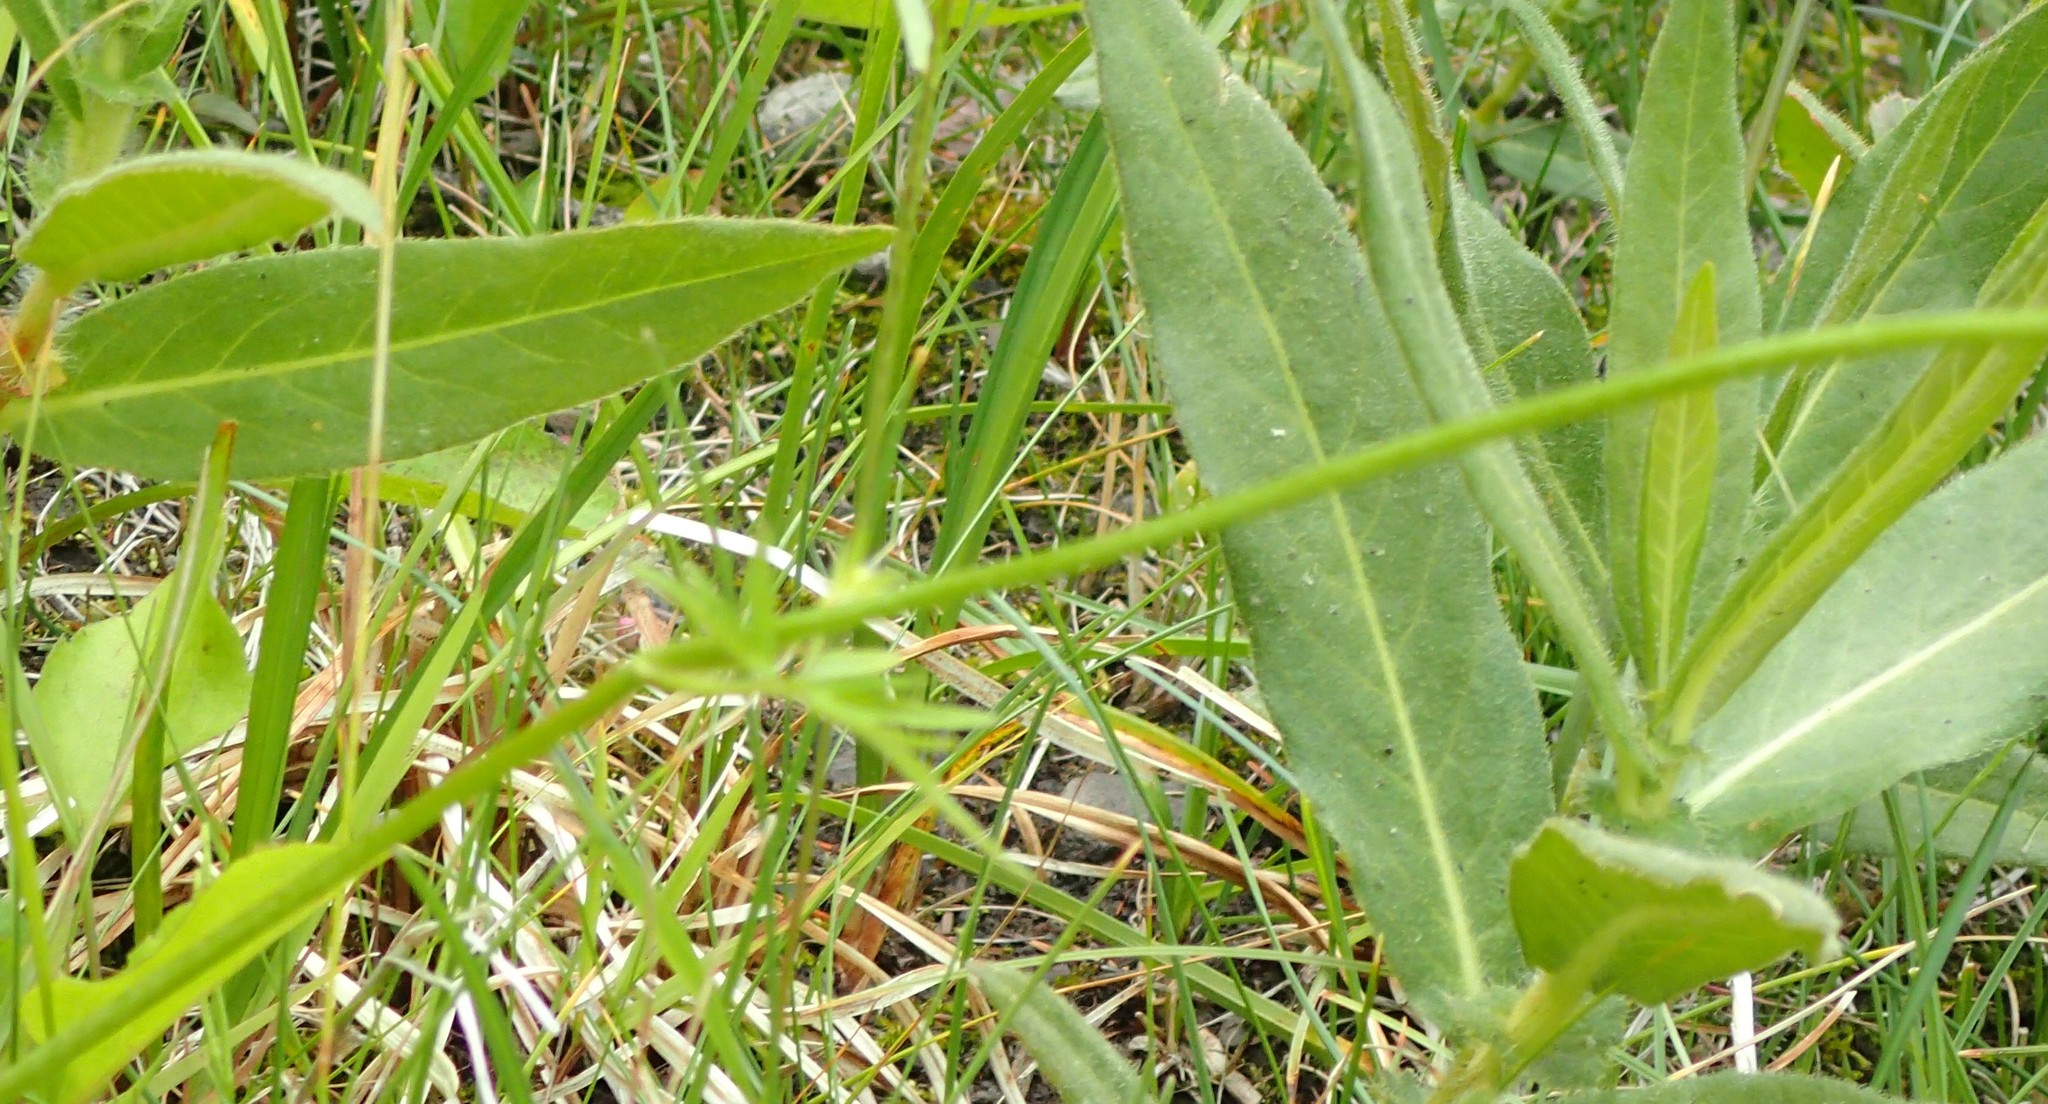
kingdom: Plantae
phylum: Tracheophyta
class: Magnoliopsida
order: Ranunculales
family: Ranunculaceae
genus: Ranunculus
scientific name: Ranunculus acris
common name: Meadow buttercup
